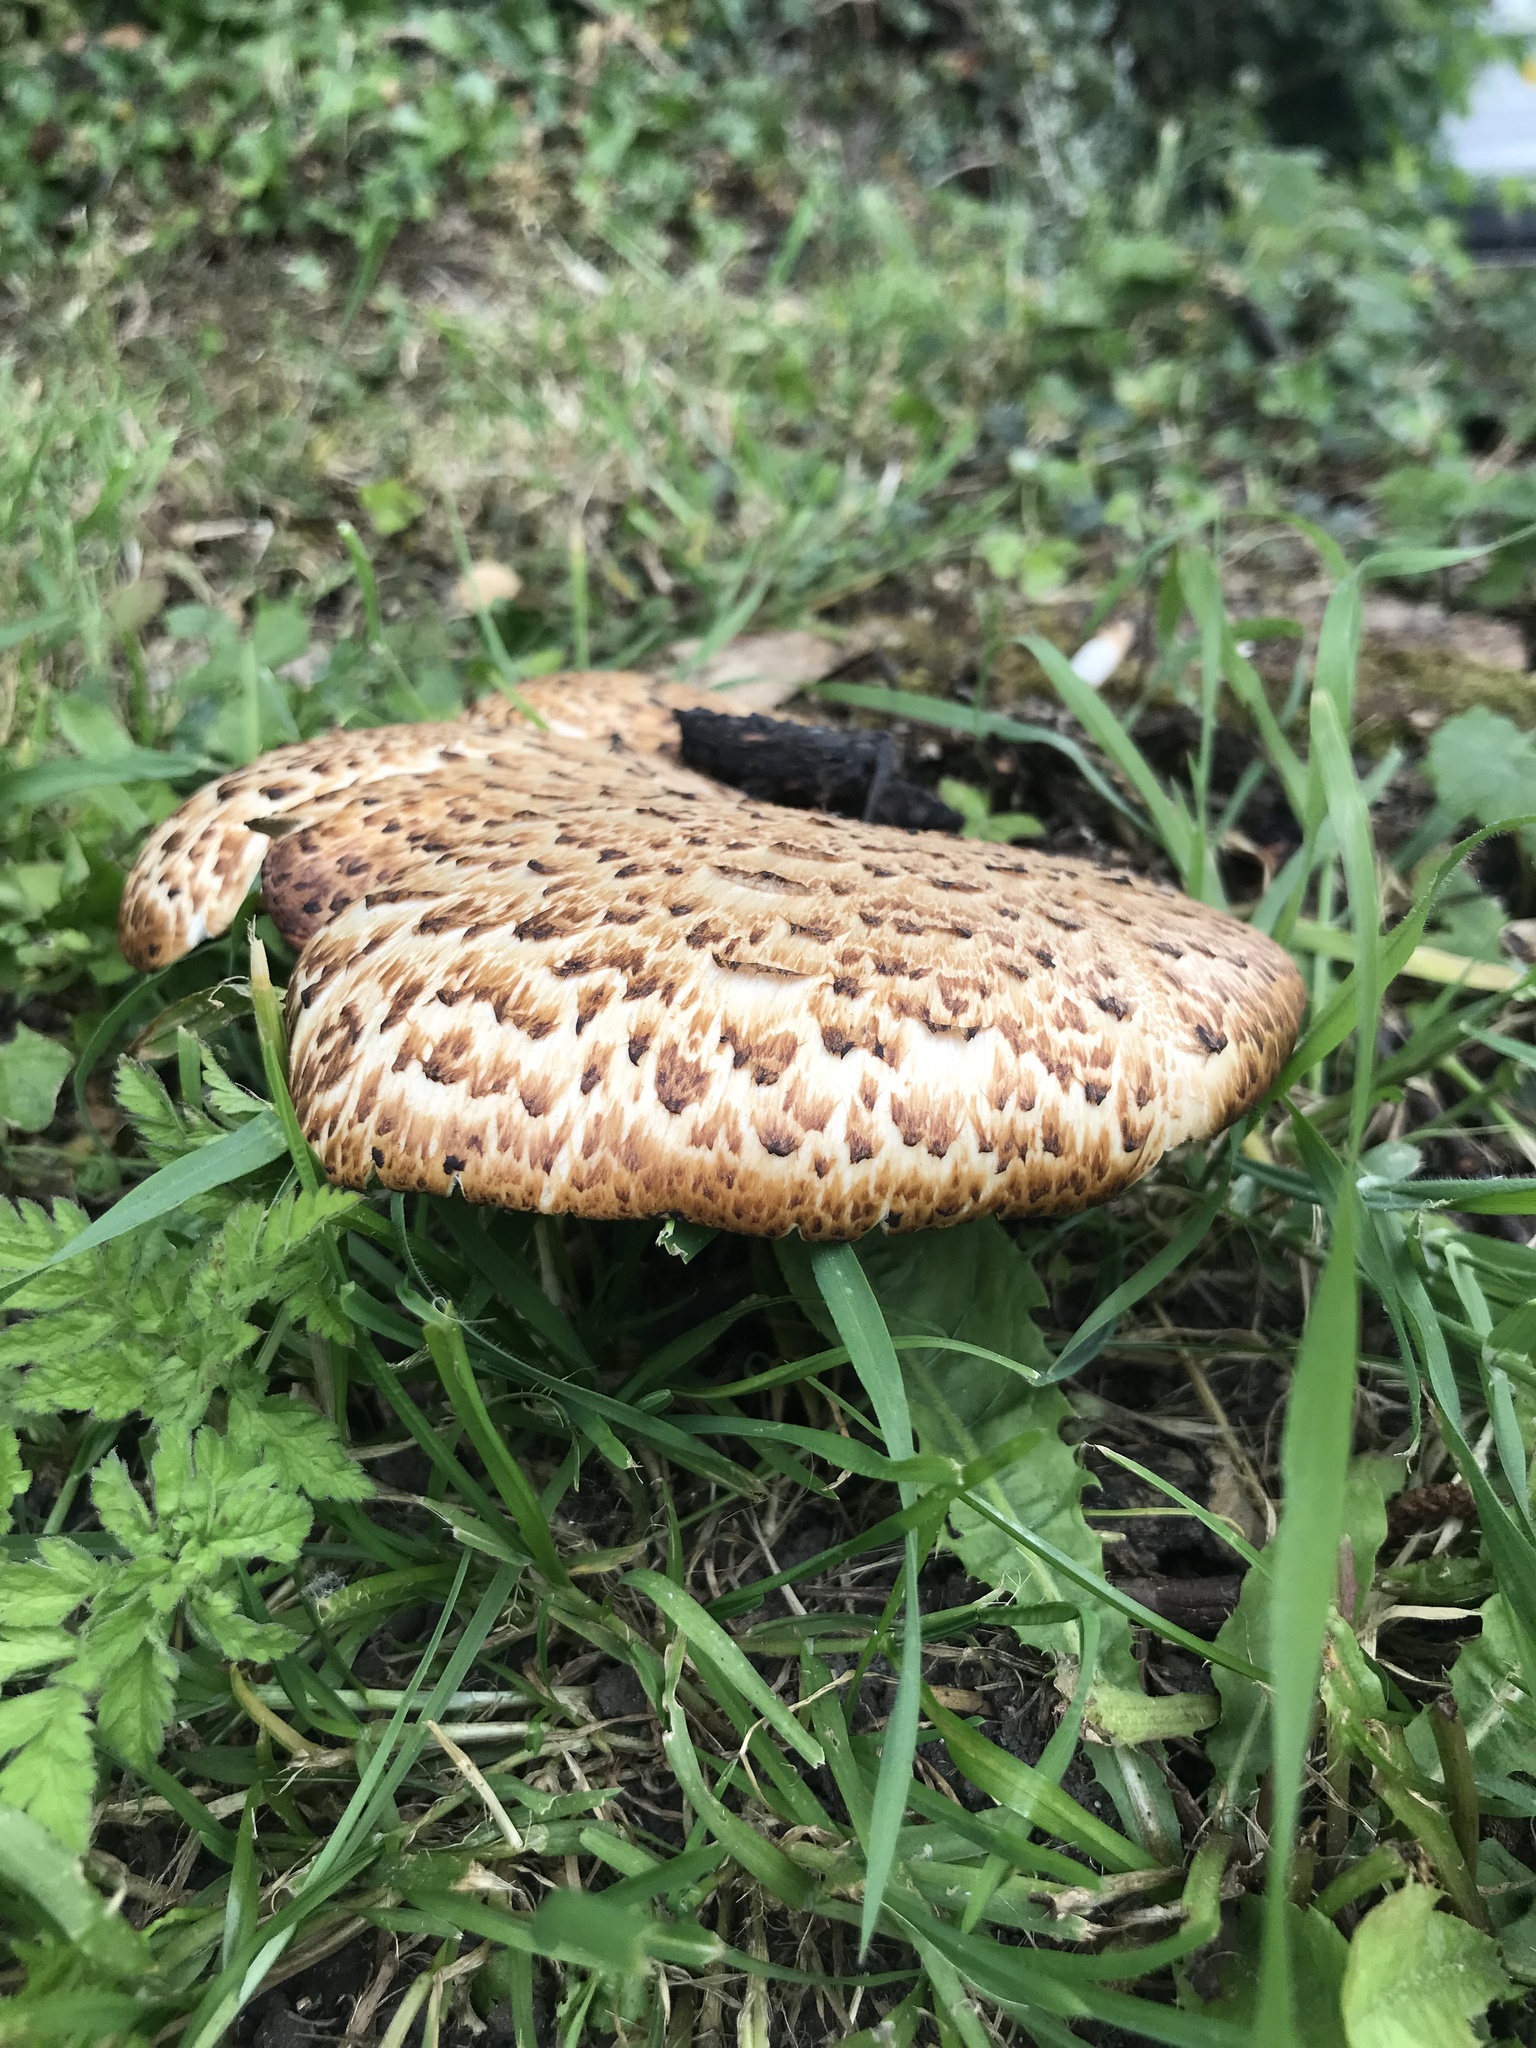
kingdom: Fungi
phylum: Basidiomycota
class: Agaricomycetes
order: Polyporales
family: Polyporaceae
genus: Cerioporus
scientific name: Cerioporus squamosus
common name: Dryad's saddle
